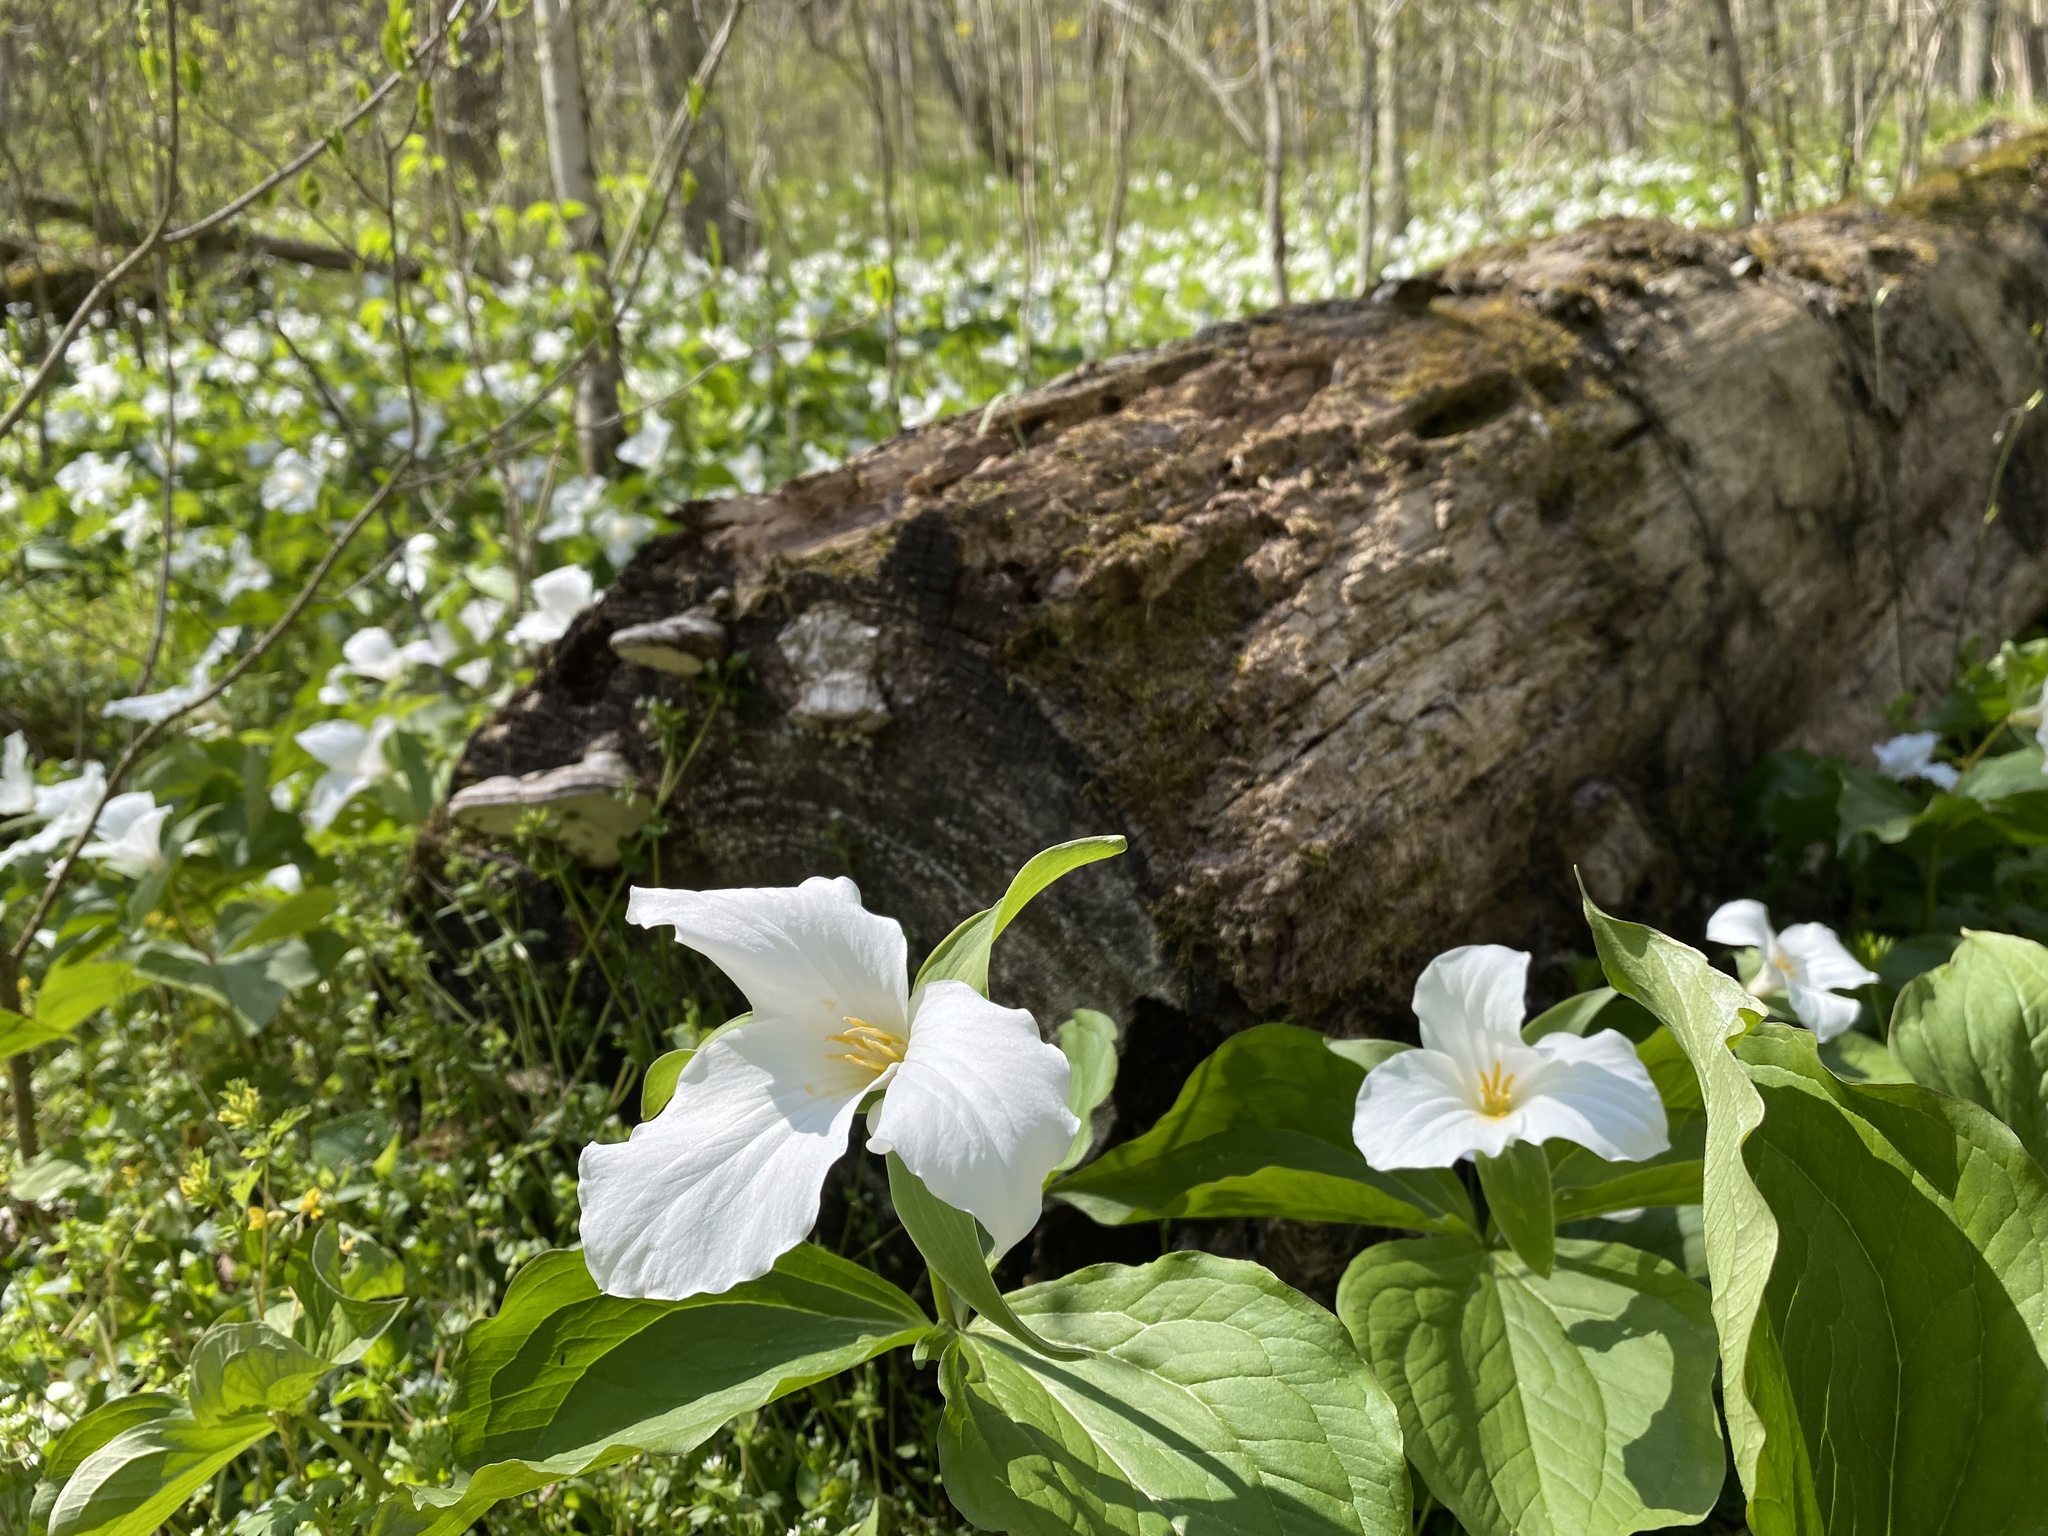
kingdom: Plantae
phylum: Tracheophyta
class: Liliopsida
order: Liliales
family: Melanthiaceae
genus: Trillium
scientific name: Trillium grandiflorum
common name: Great white trillium
